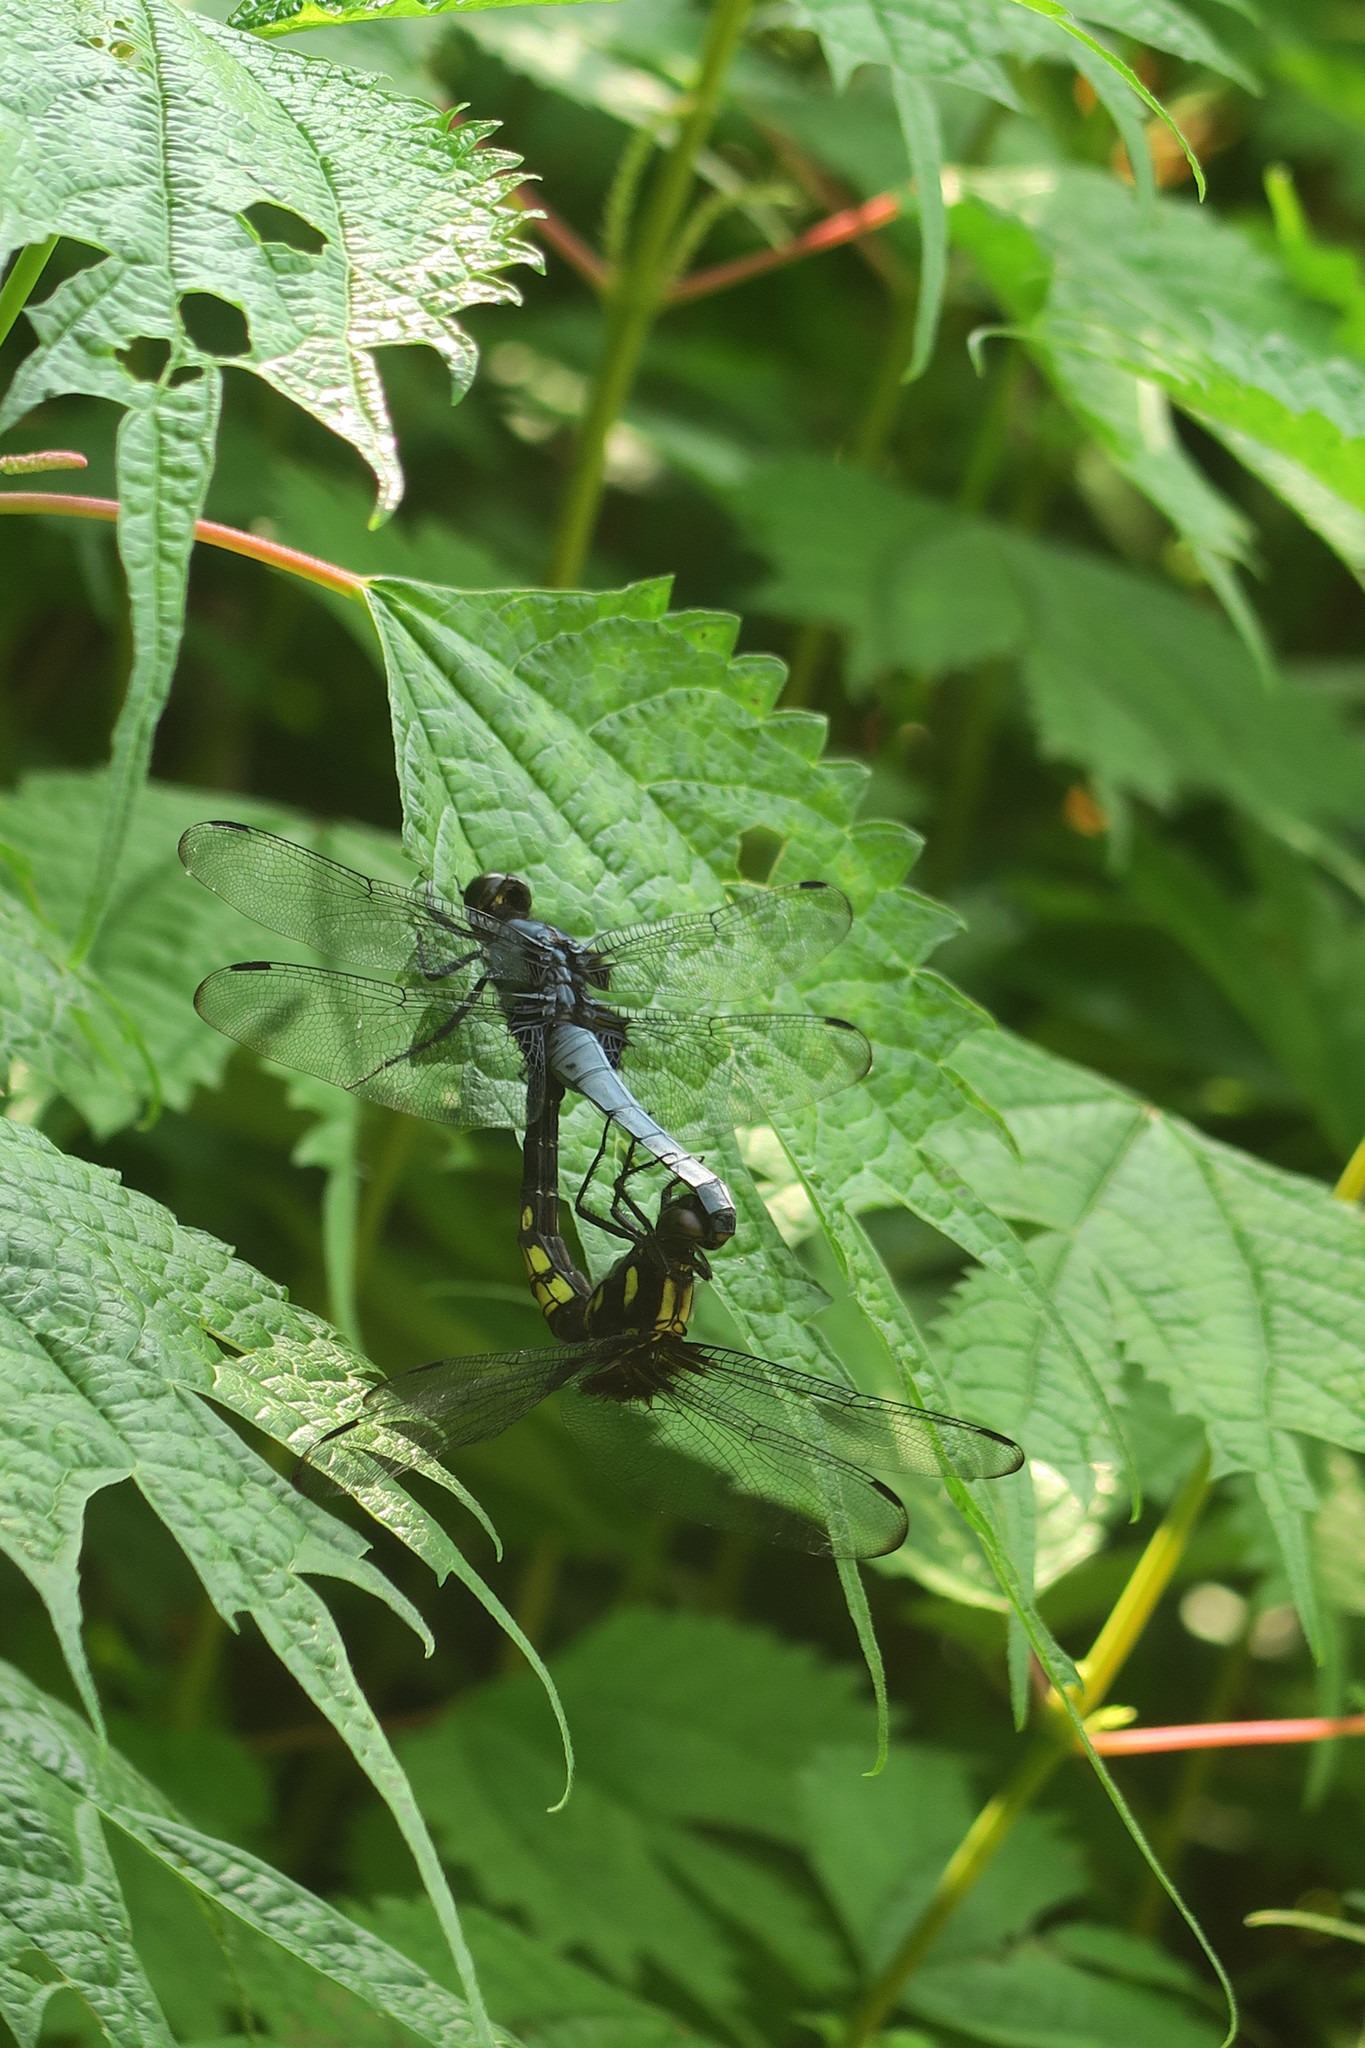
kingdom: Animalia
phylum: Arthropoda
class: Insecta
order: Odonata
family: Libellulidae
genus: Orthetrum
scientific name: Orthetrum melania
